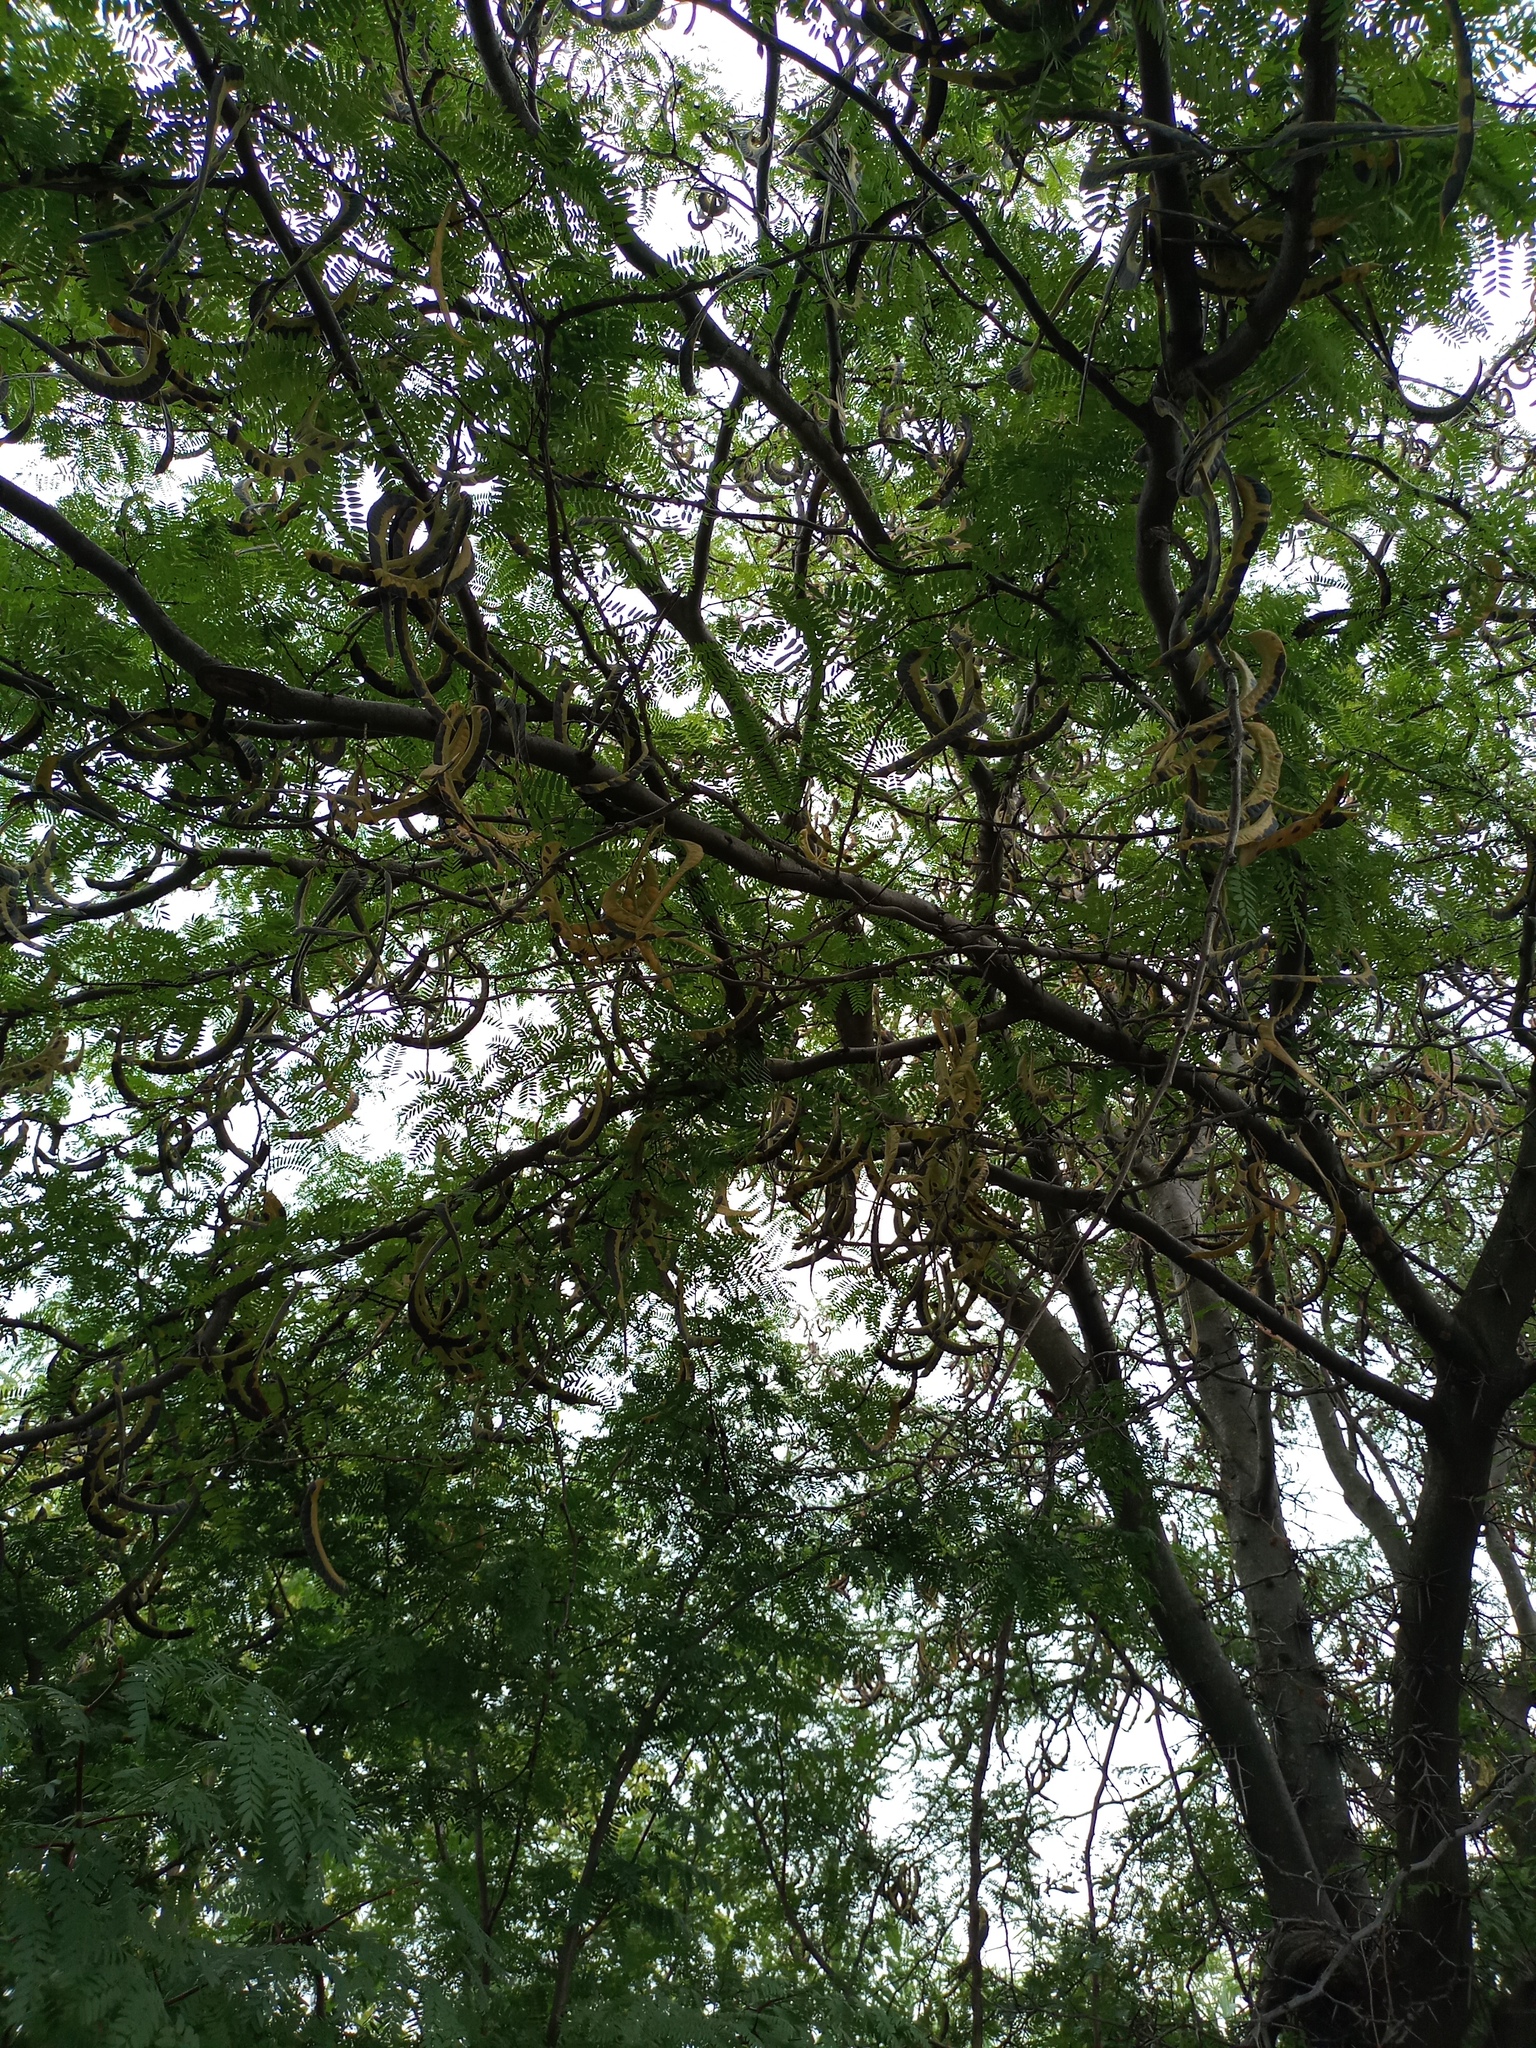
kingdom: Plantae
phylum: Tracheophyta
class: Magnoliopsida
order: Fabales
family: Fabaceae
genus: Gleditsia
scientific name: Gleditsia triacanthos
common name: Common honeylocust
